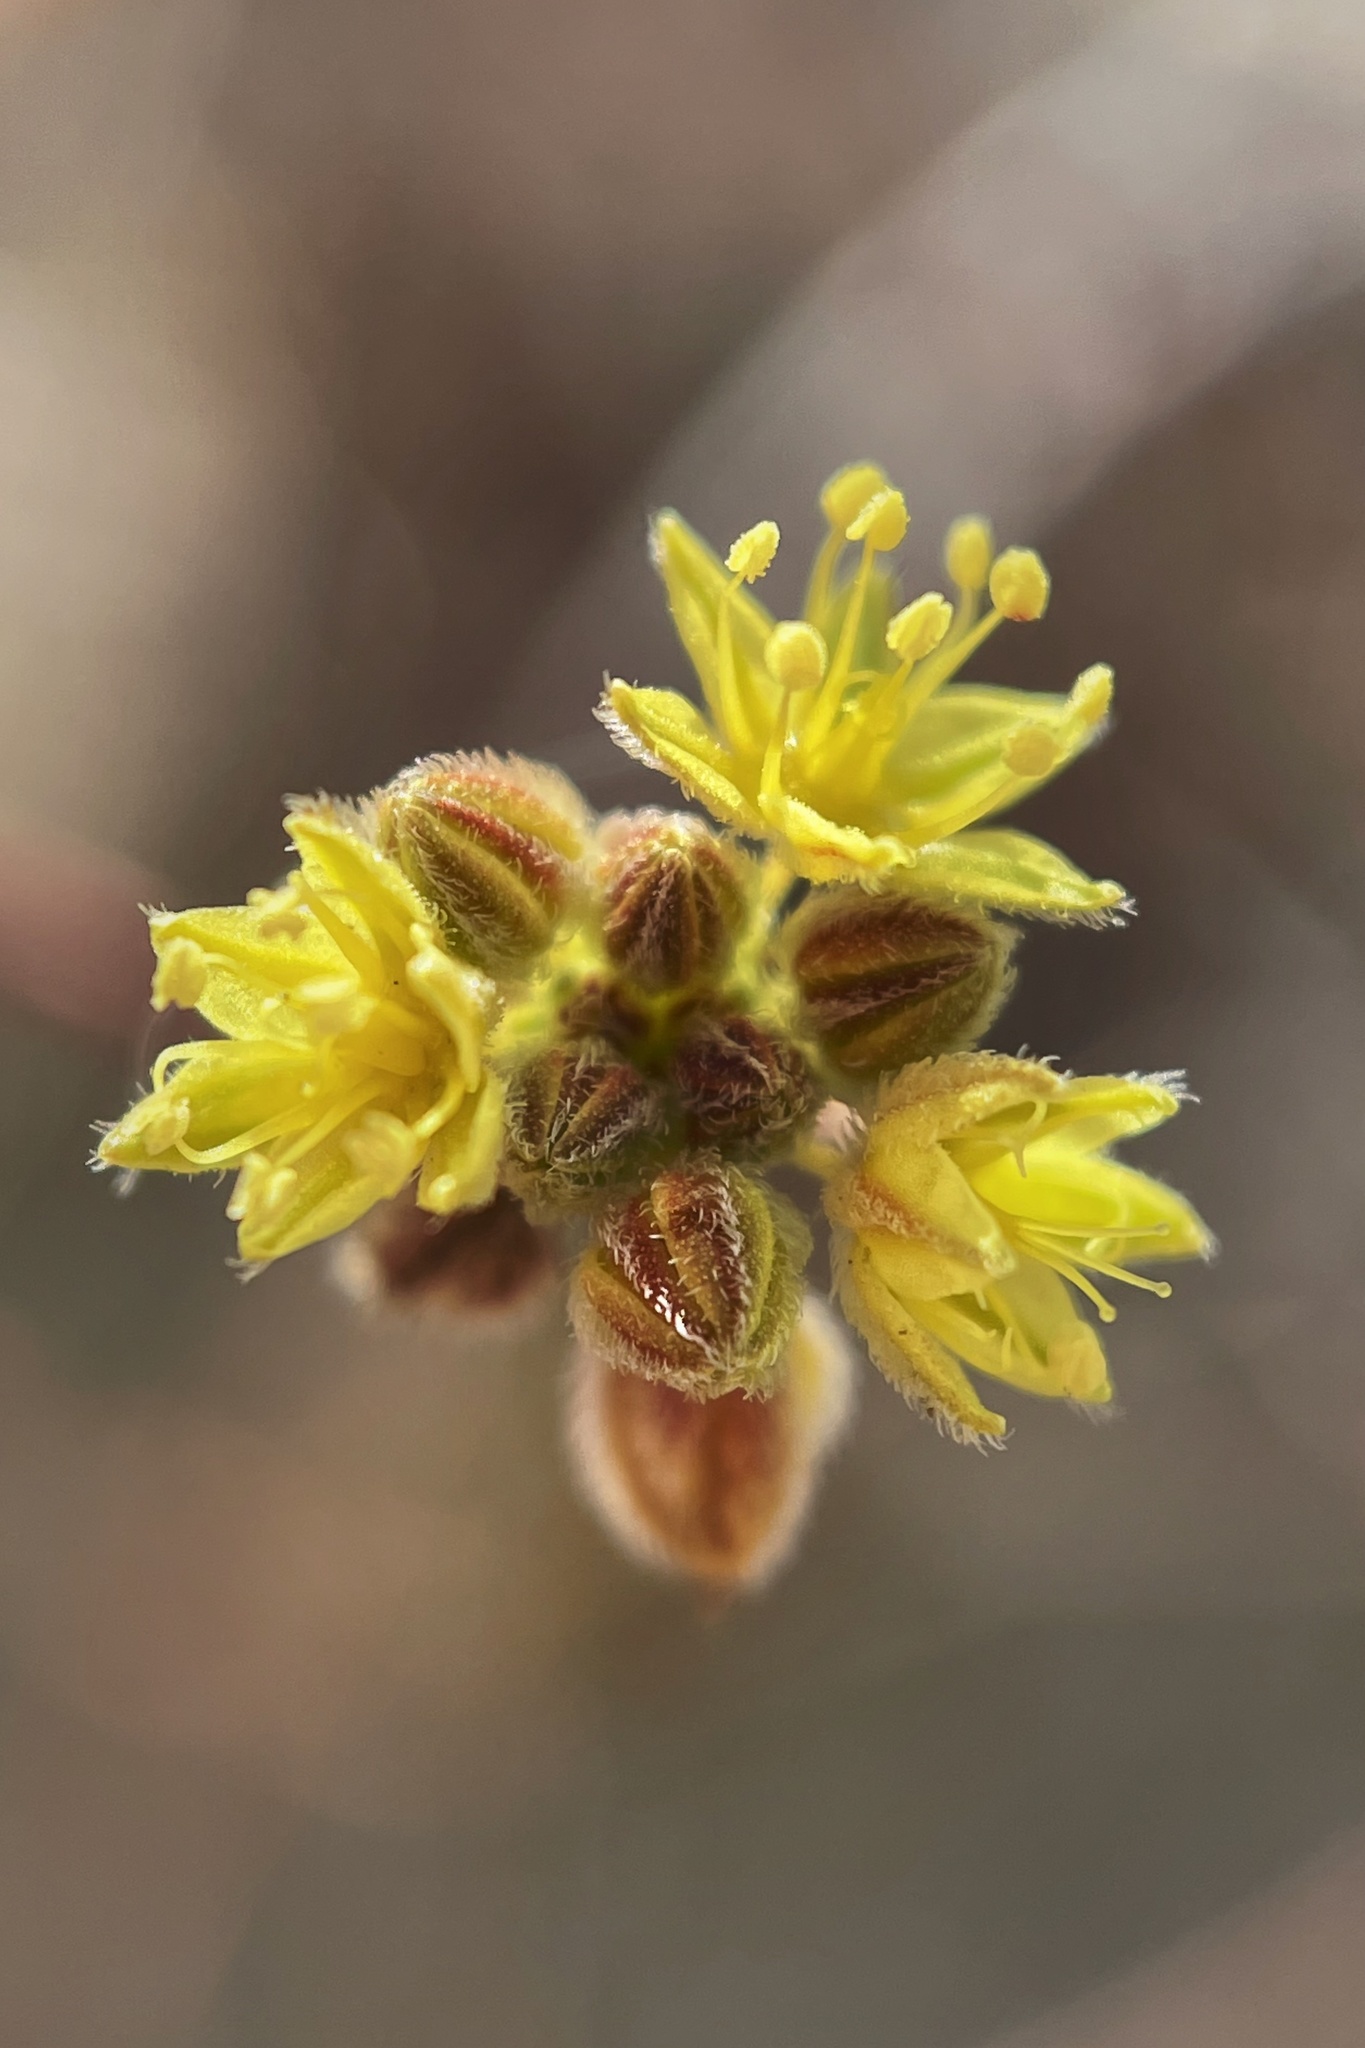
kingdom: Plantae
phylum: Tracheophyta
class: Magnoliopsida
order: Caryophyllales
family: Polygonaceae
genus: Eriogonum
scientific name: Eriogonum inflatum
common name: Desert trumpet
